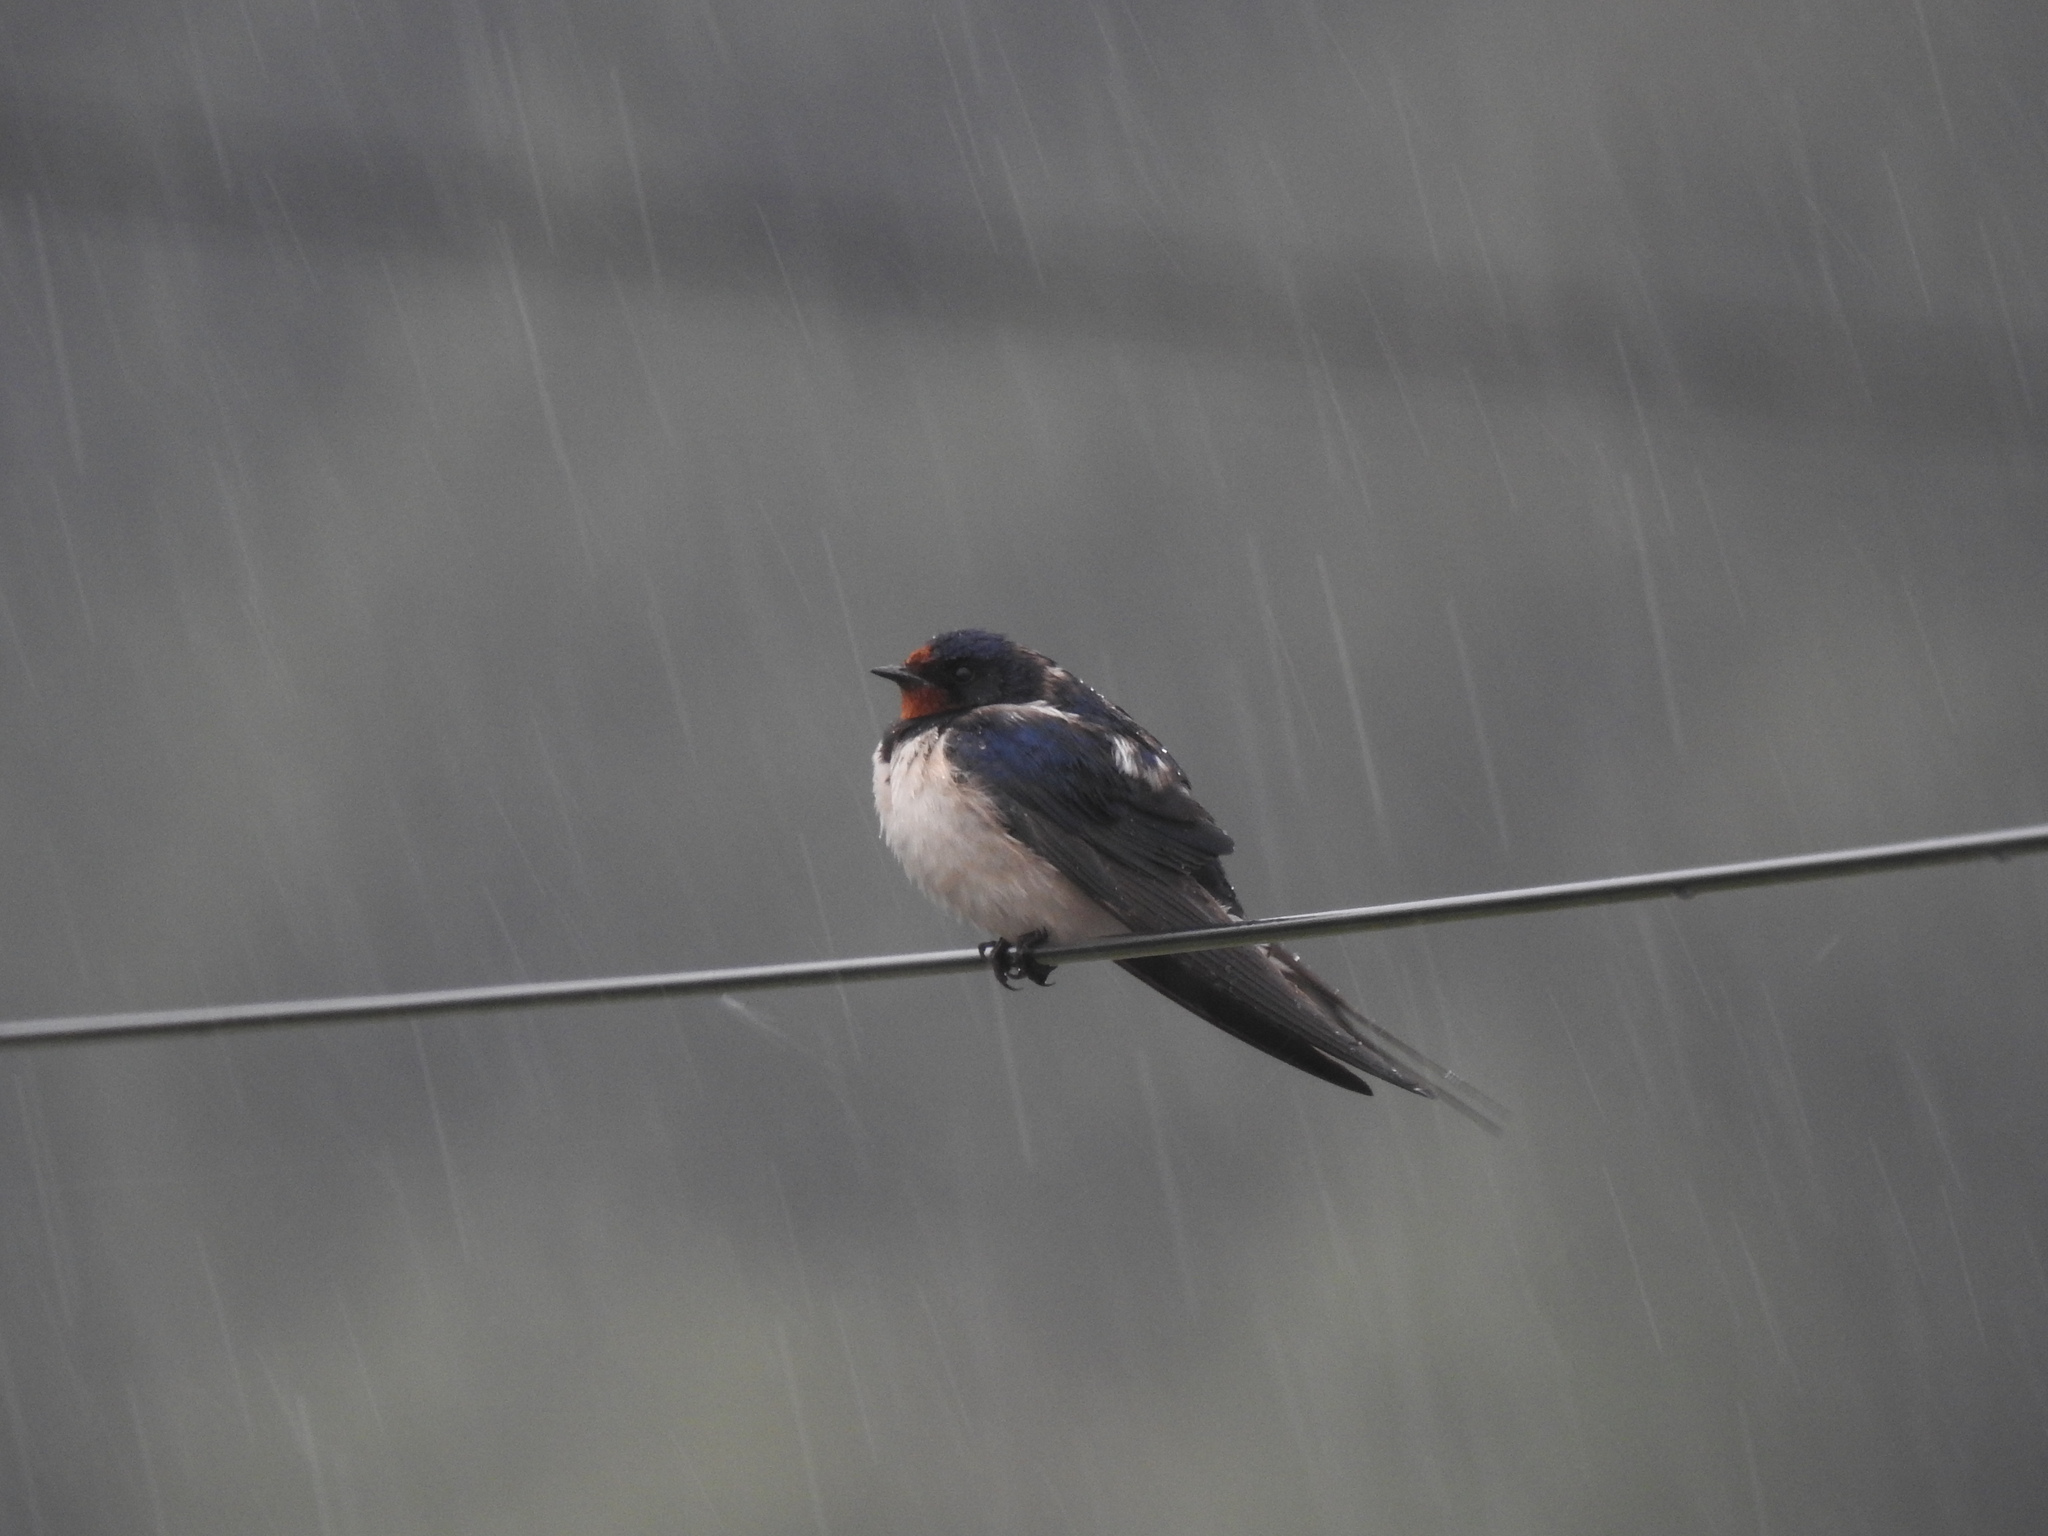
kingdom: Animalia
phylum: Chordata
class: Aves
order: Passeriformes
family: Hirundinidae
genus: Hirundo
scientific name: Hirundo rustica
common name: Barn swallow
